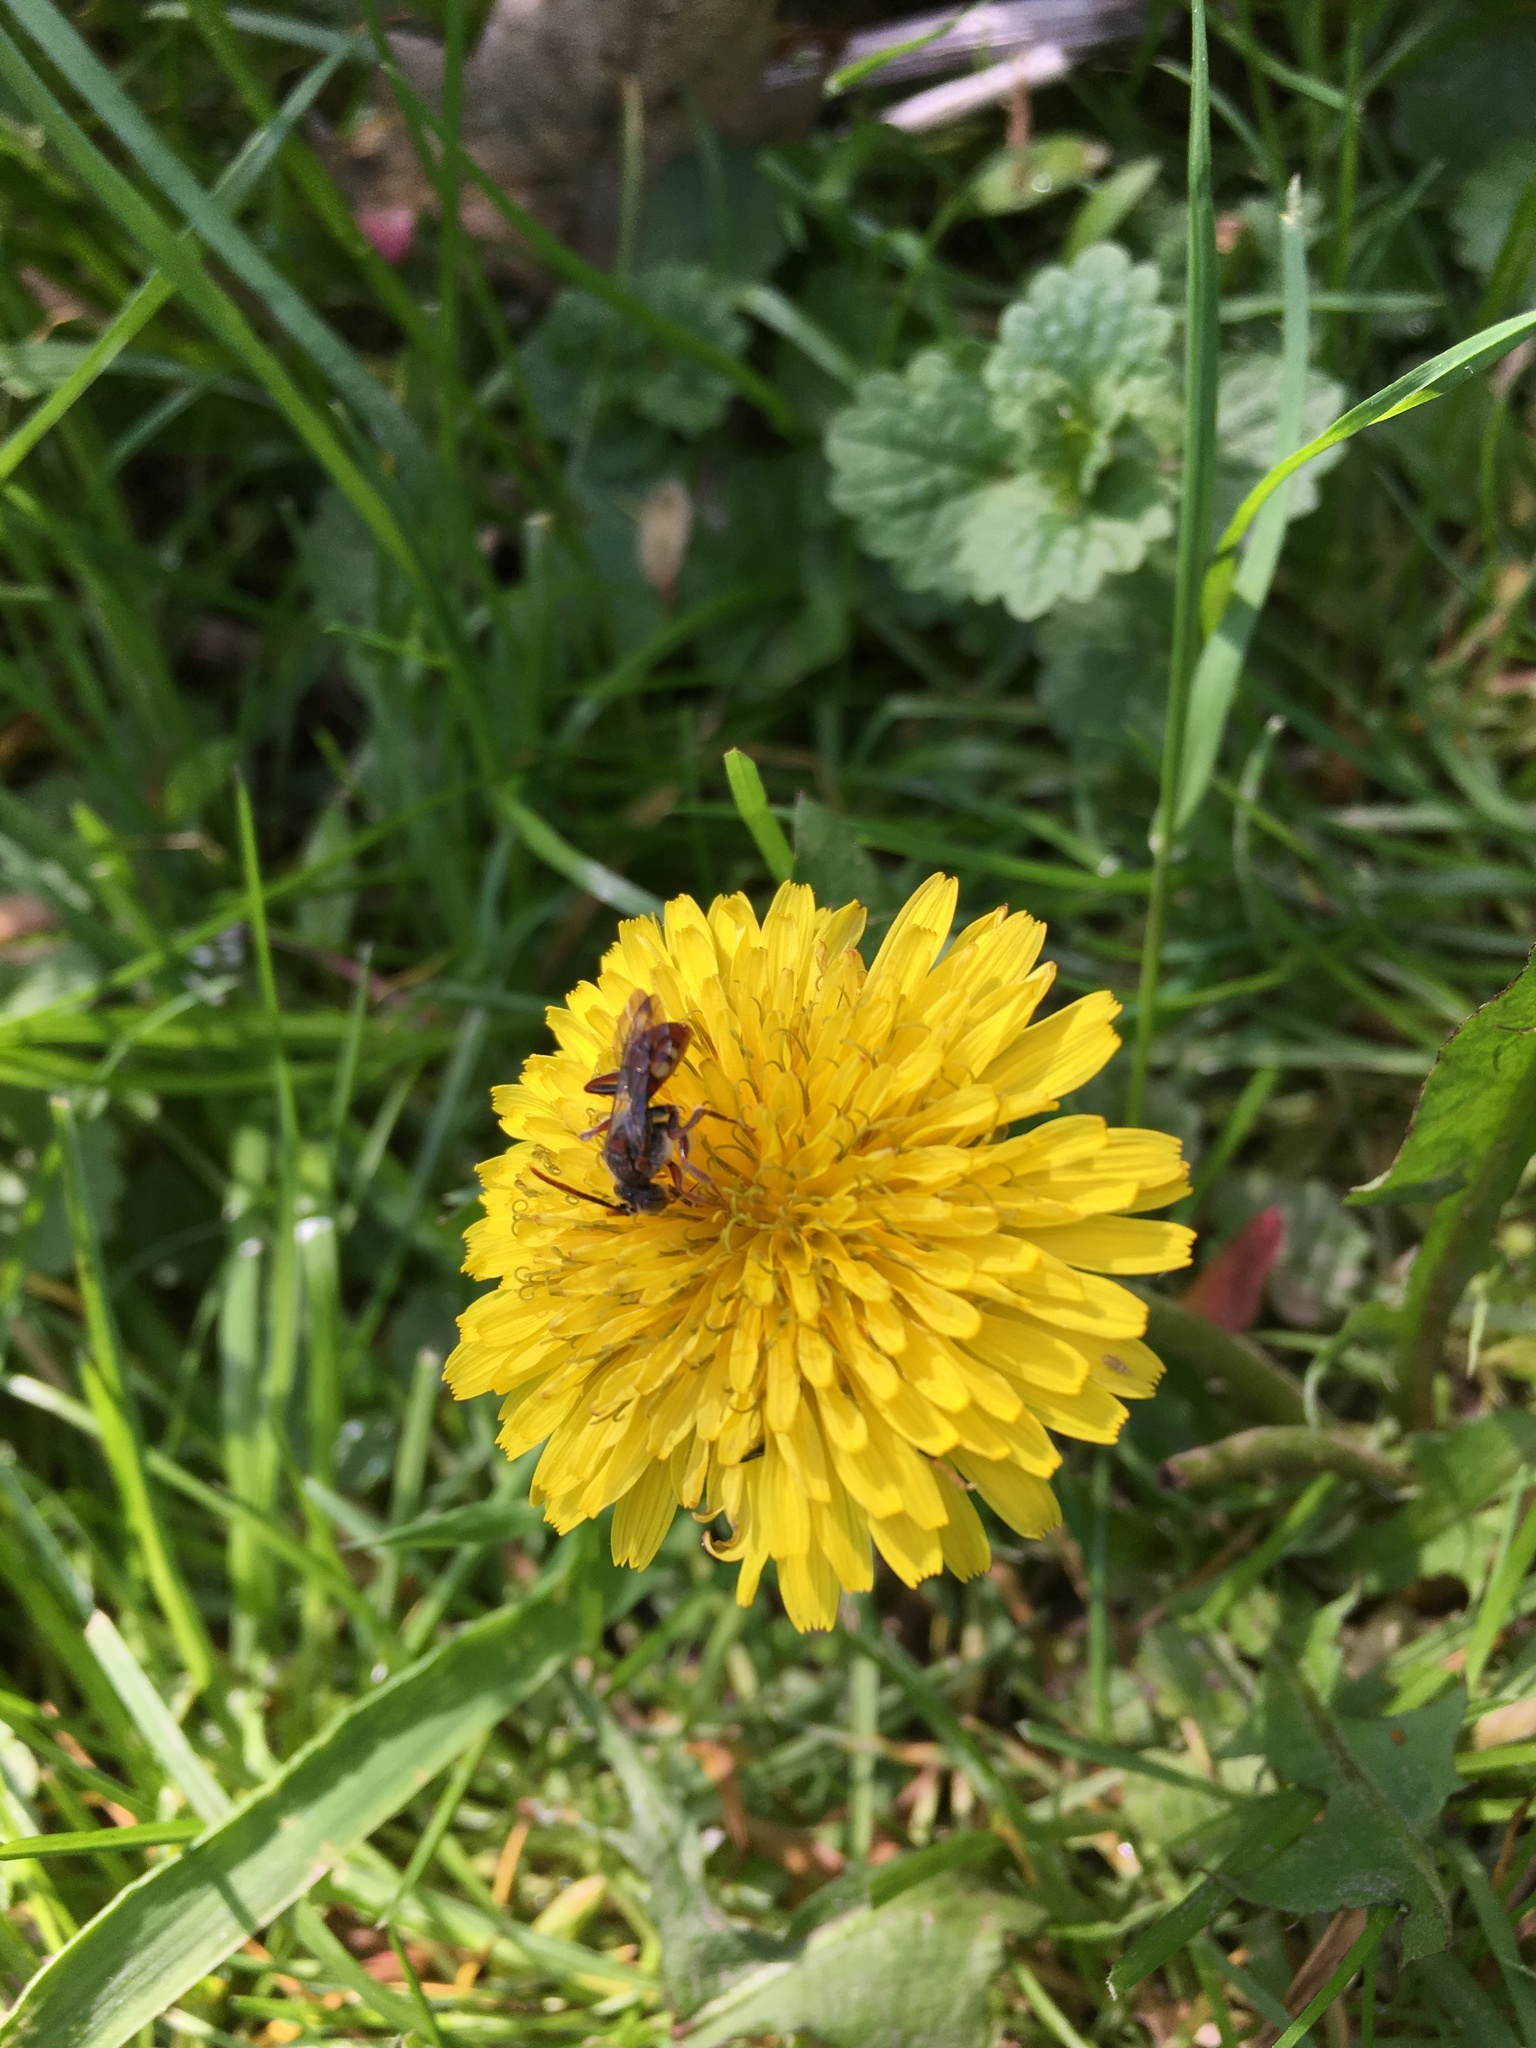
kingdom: Animalia
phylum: Arthropoda
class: Insecta
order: Hymenoptera
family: Apidae
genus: Nomada
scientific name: Nomada
